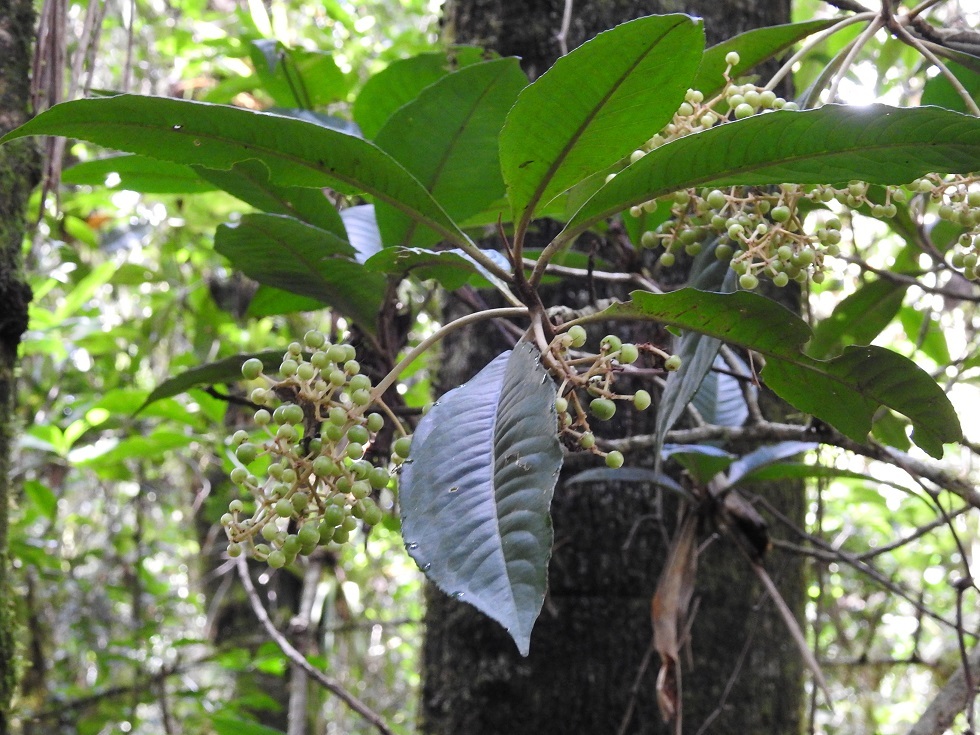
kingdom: Plantae
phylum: Tracheophyta
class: Magnoliopsida
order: Ericales
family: Primulaceae
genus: Parathesis
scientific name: Parathesis leptopa
